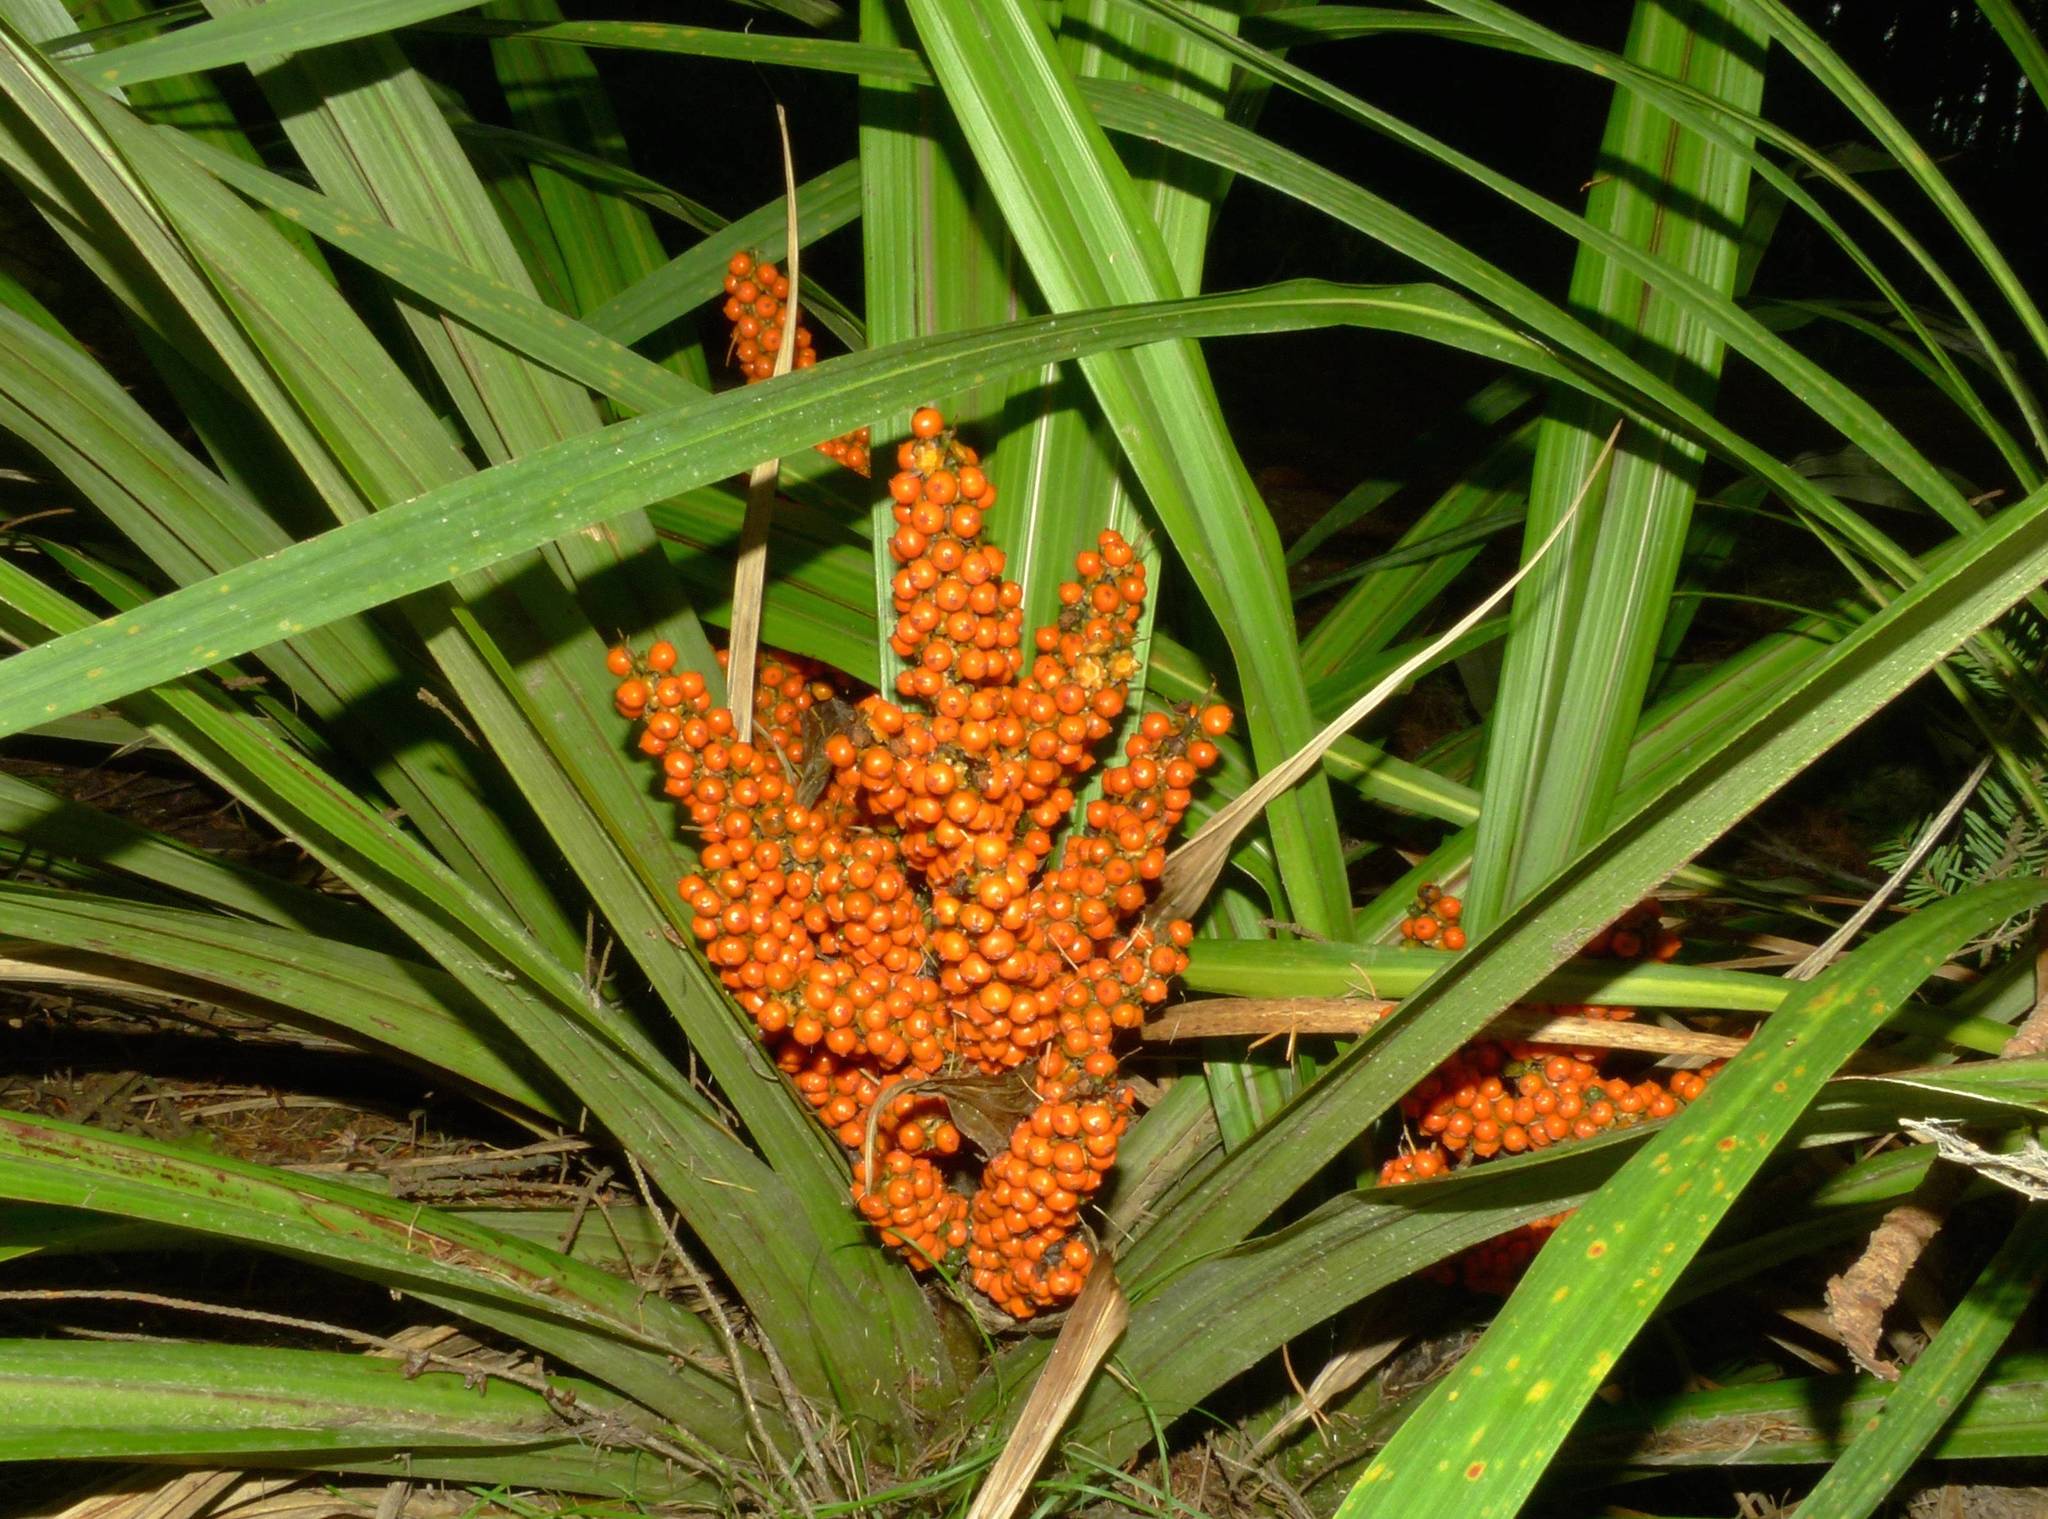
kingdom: Plantae
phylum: Tracheophyta
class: Liliopsida
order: Asparagales
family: Asteliaceae
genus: Astelia
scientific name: Astelia fragrans
